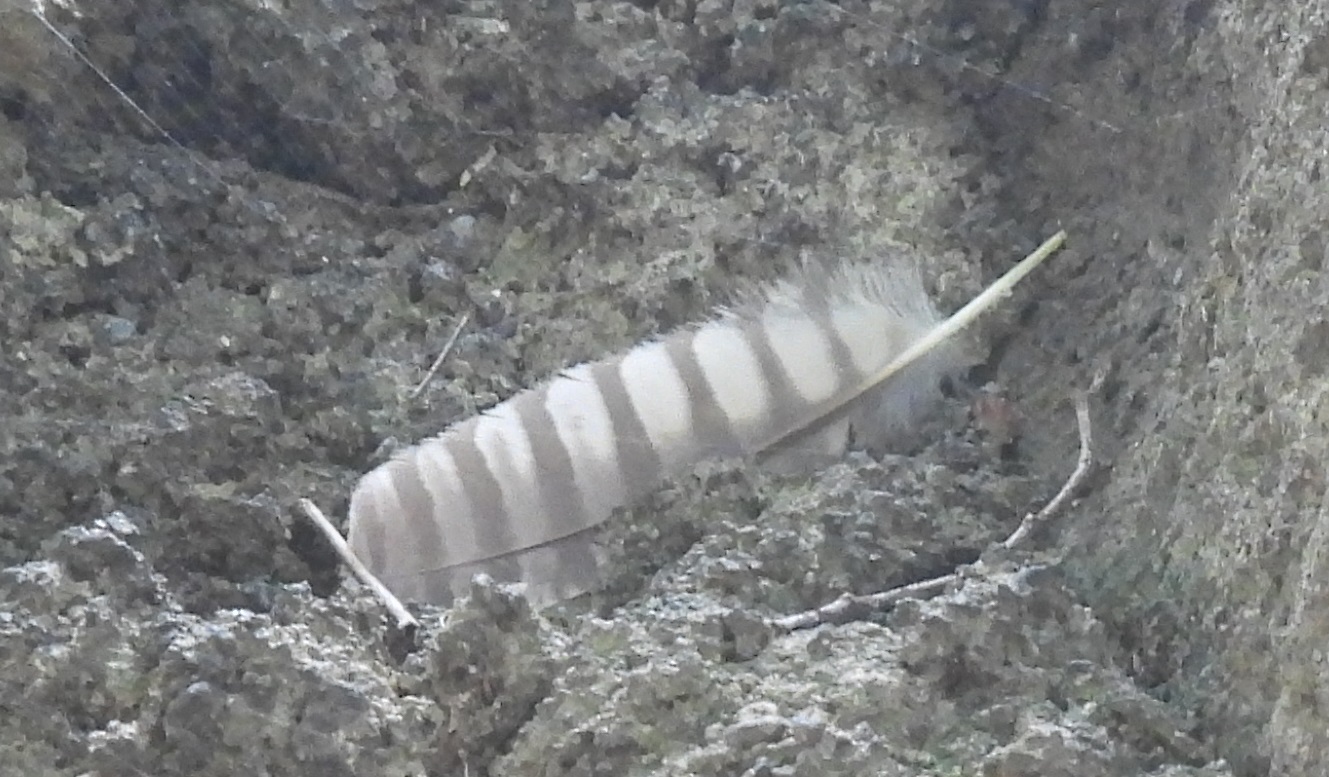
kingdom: Animalia
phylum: Chordata
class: Aves
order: Strigiformes
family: Strigidae
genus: Megascops
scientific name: Megascops asio
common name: Eastern screech-owl
